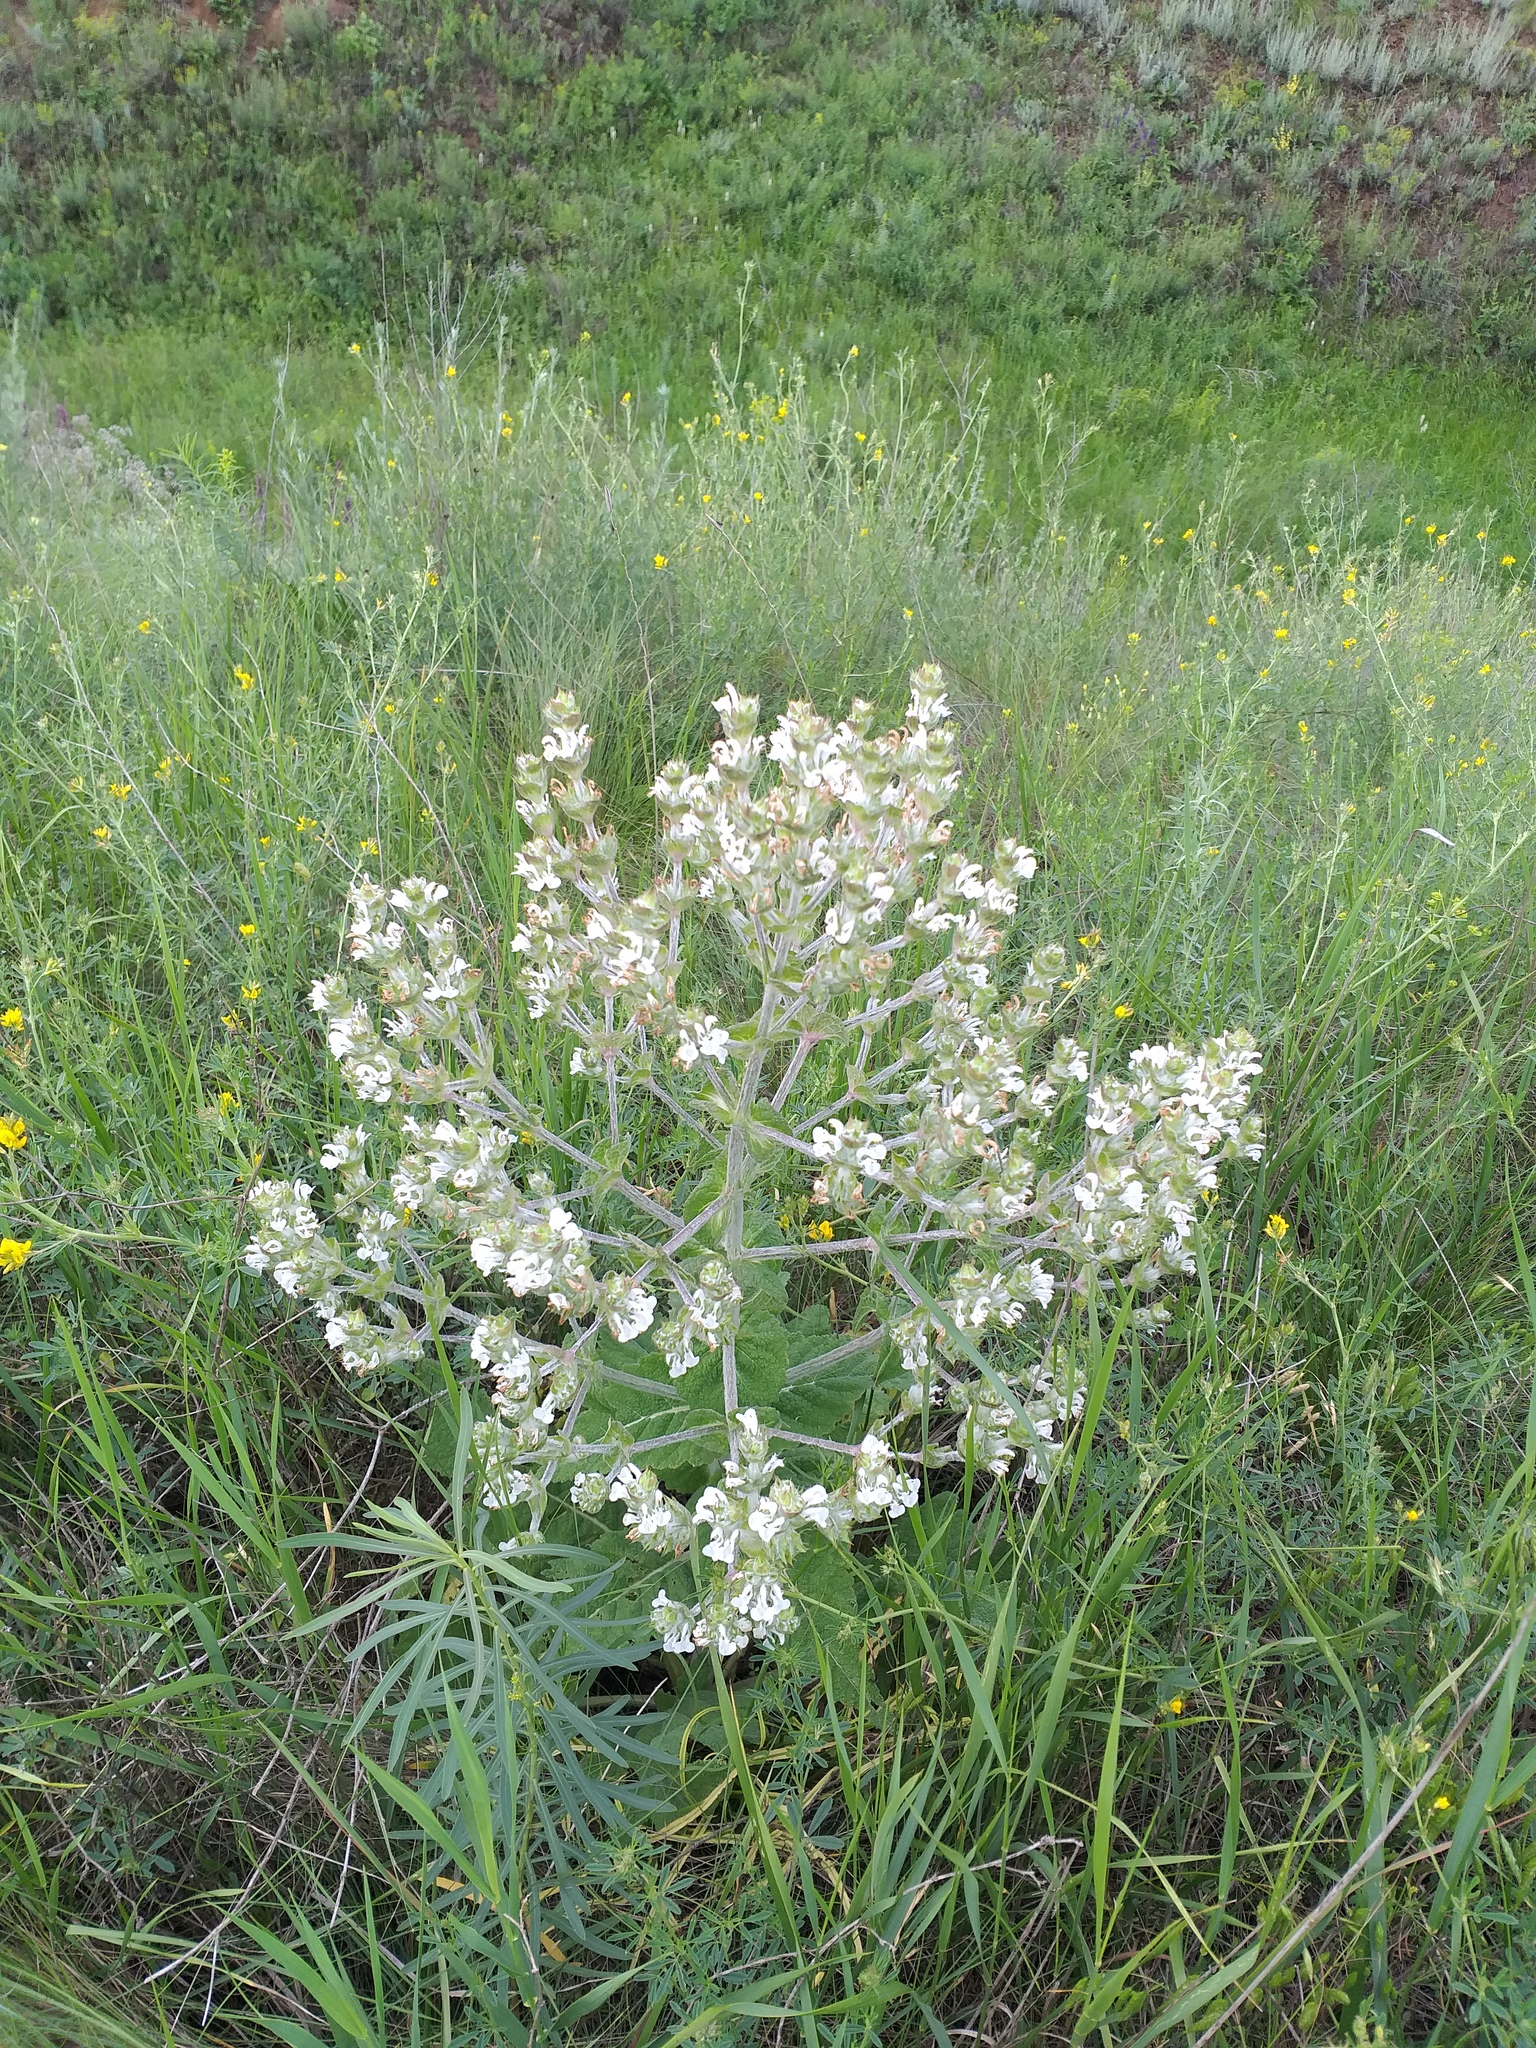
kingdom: Plantae
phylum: Tracheophyta
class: Magnoliopsida
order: Lamiales
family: Lamiaceae
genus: Salvia
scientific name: Salvia aethiopis
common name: Mediterranean sage
